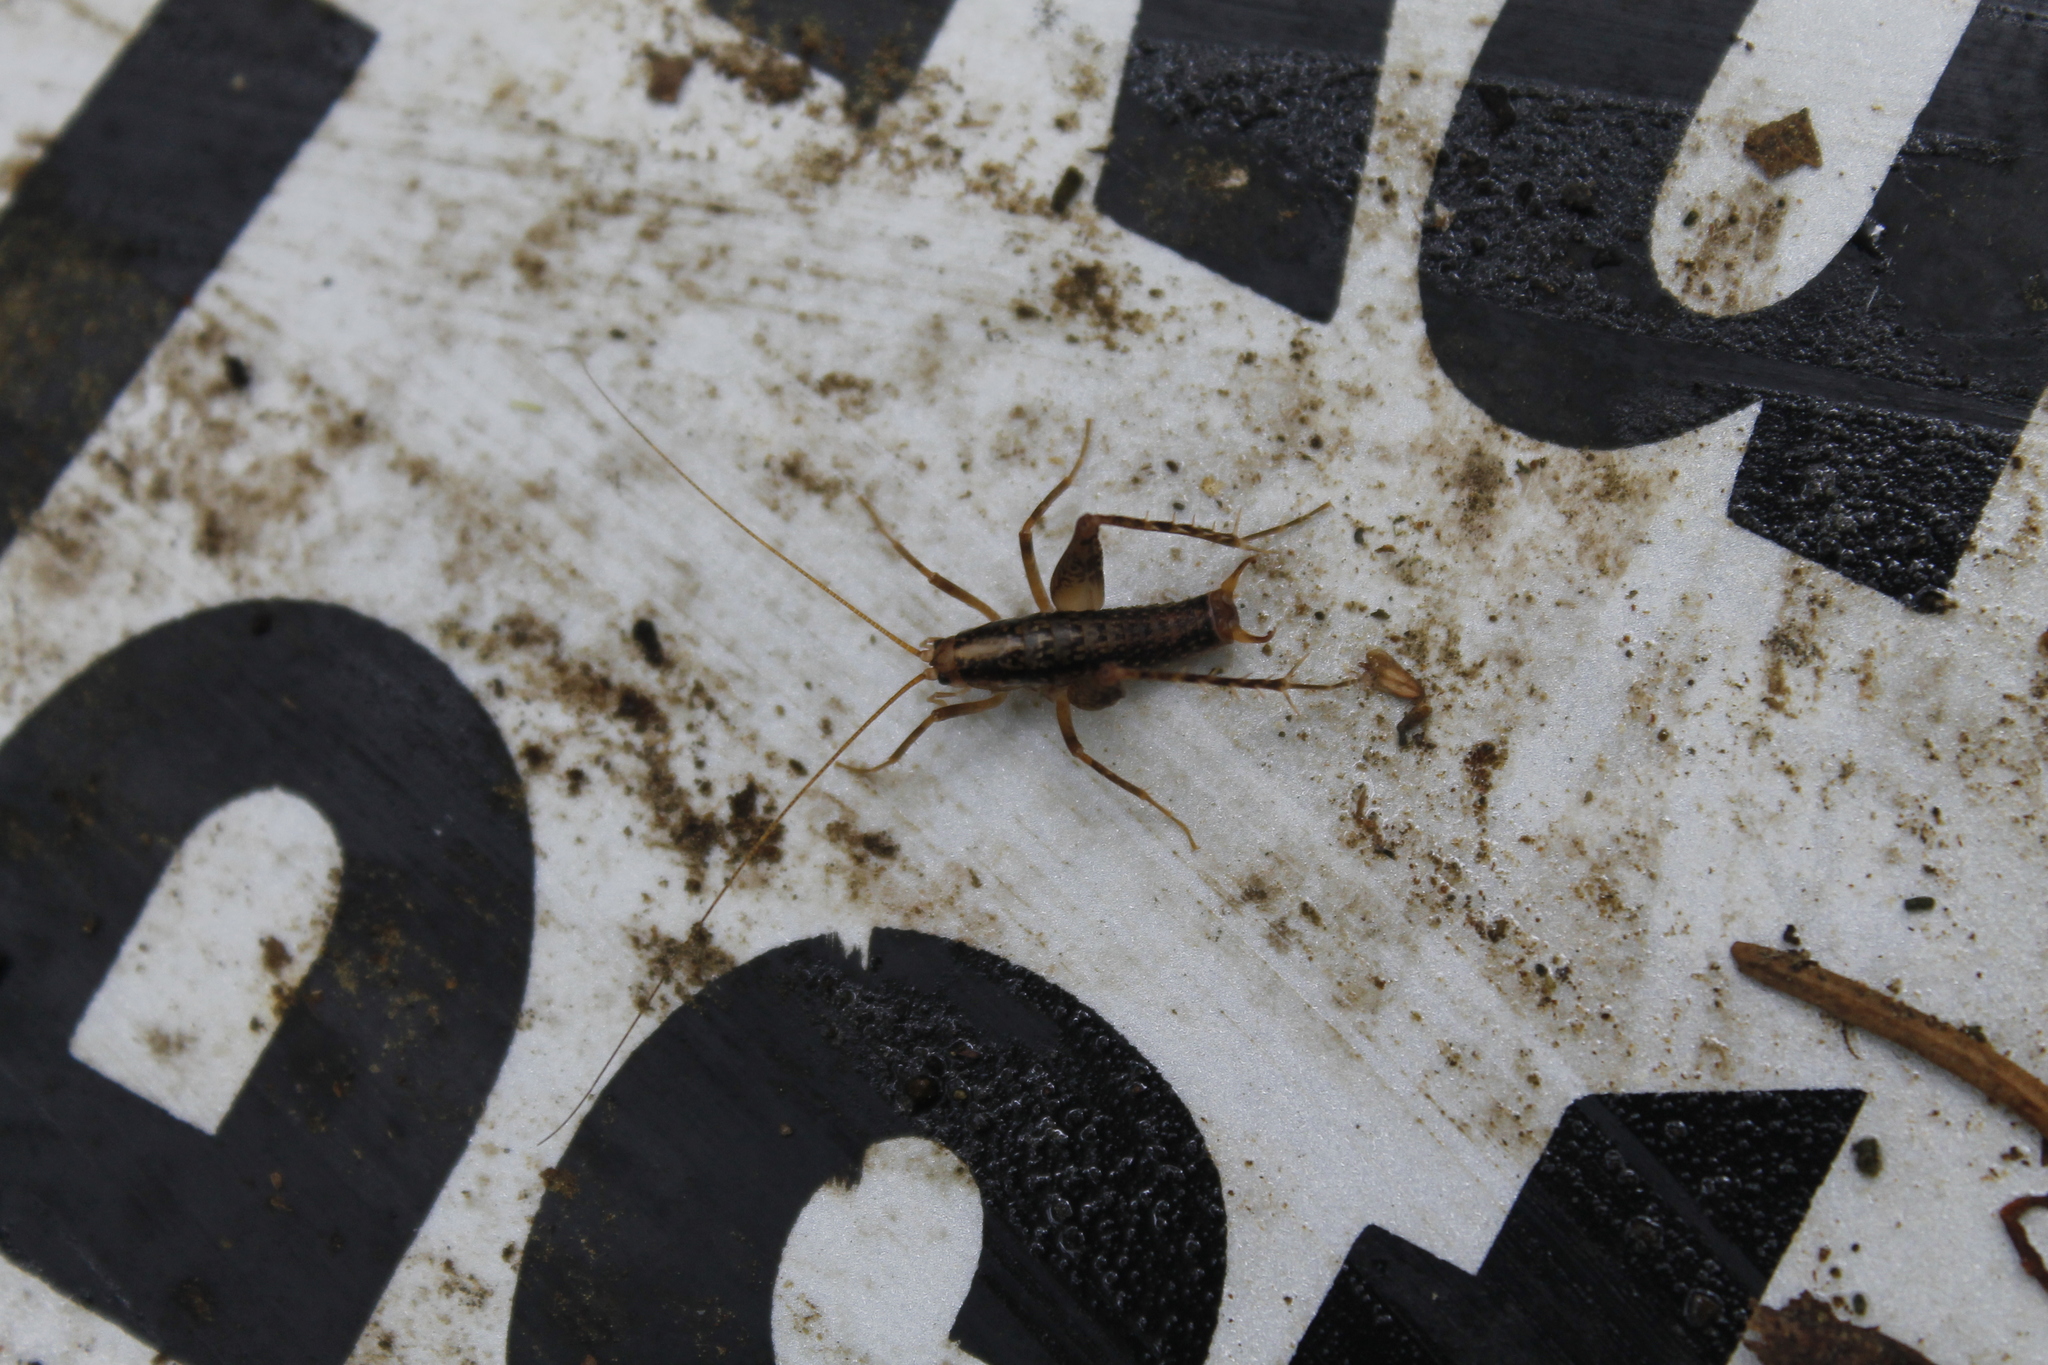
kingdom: Animalia
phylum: Arthropoda
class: Insecta
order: Orthoptera
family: Rhaphidophoridae
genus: Pristoceuthophilus
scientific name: Pristoceuthophilus cercalis
